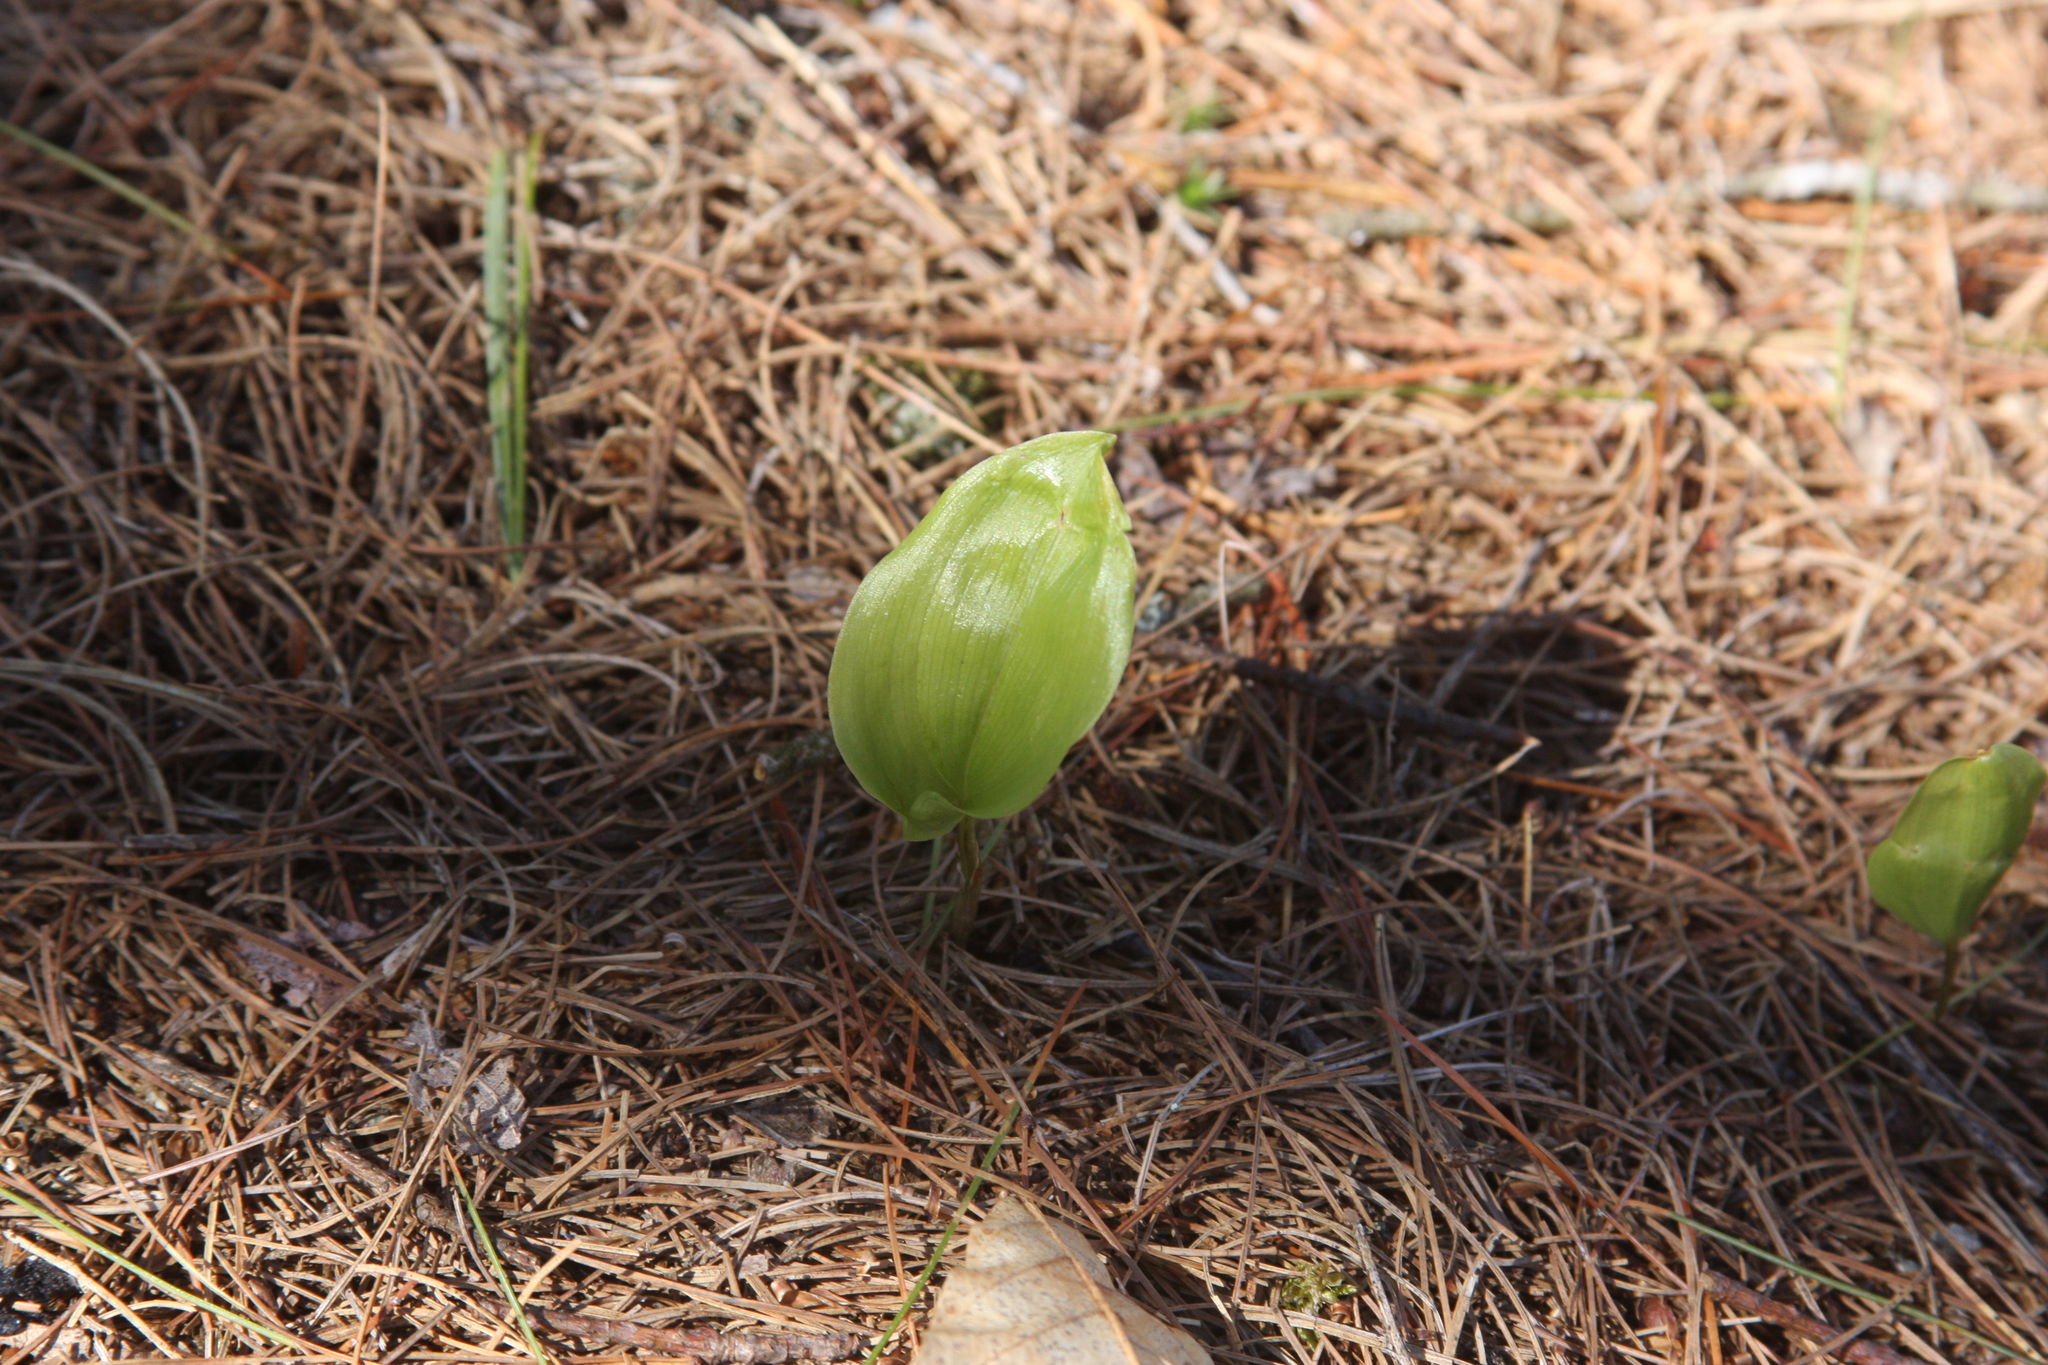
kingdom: Plantae
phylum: Tracheophyta
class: Liliopsida
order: Asparagales
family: Asparagaceae
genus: Maianthemum
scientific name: Maianthemum canadense
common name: False lily-of-the-valley
